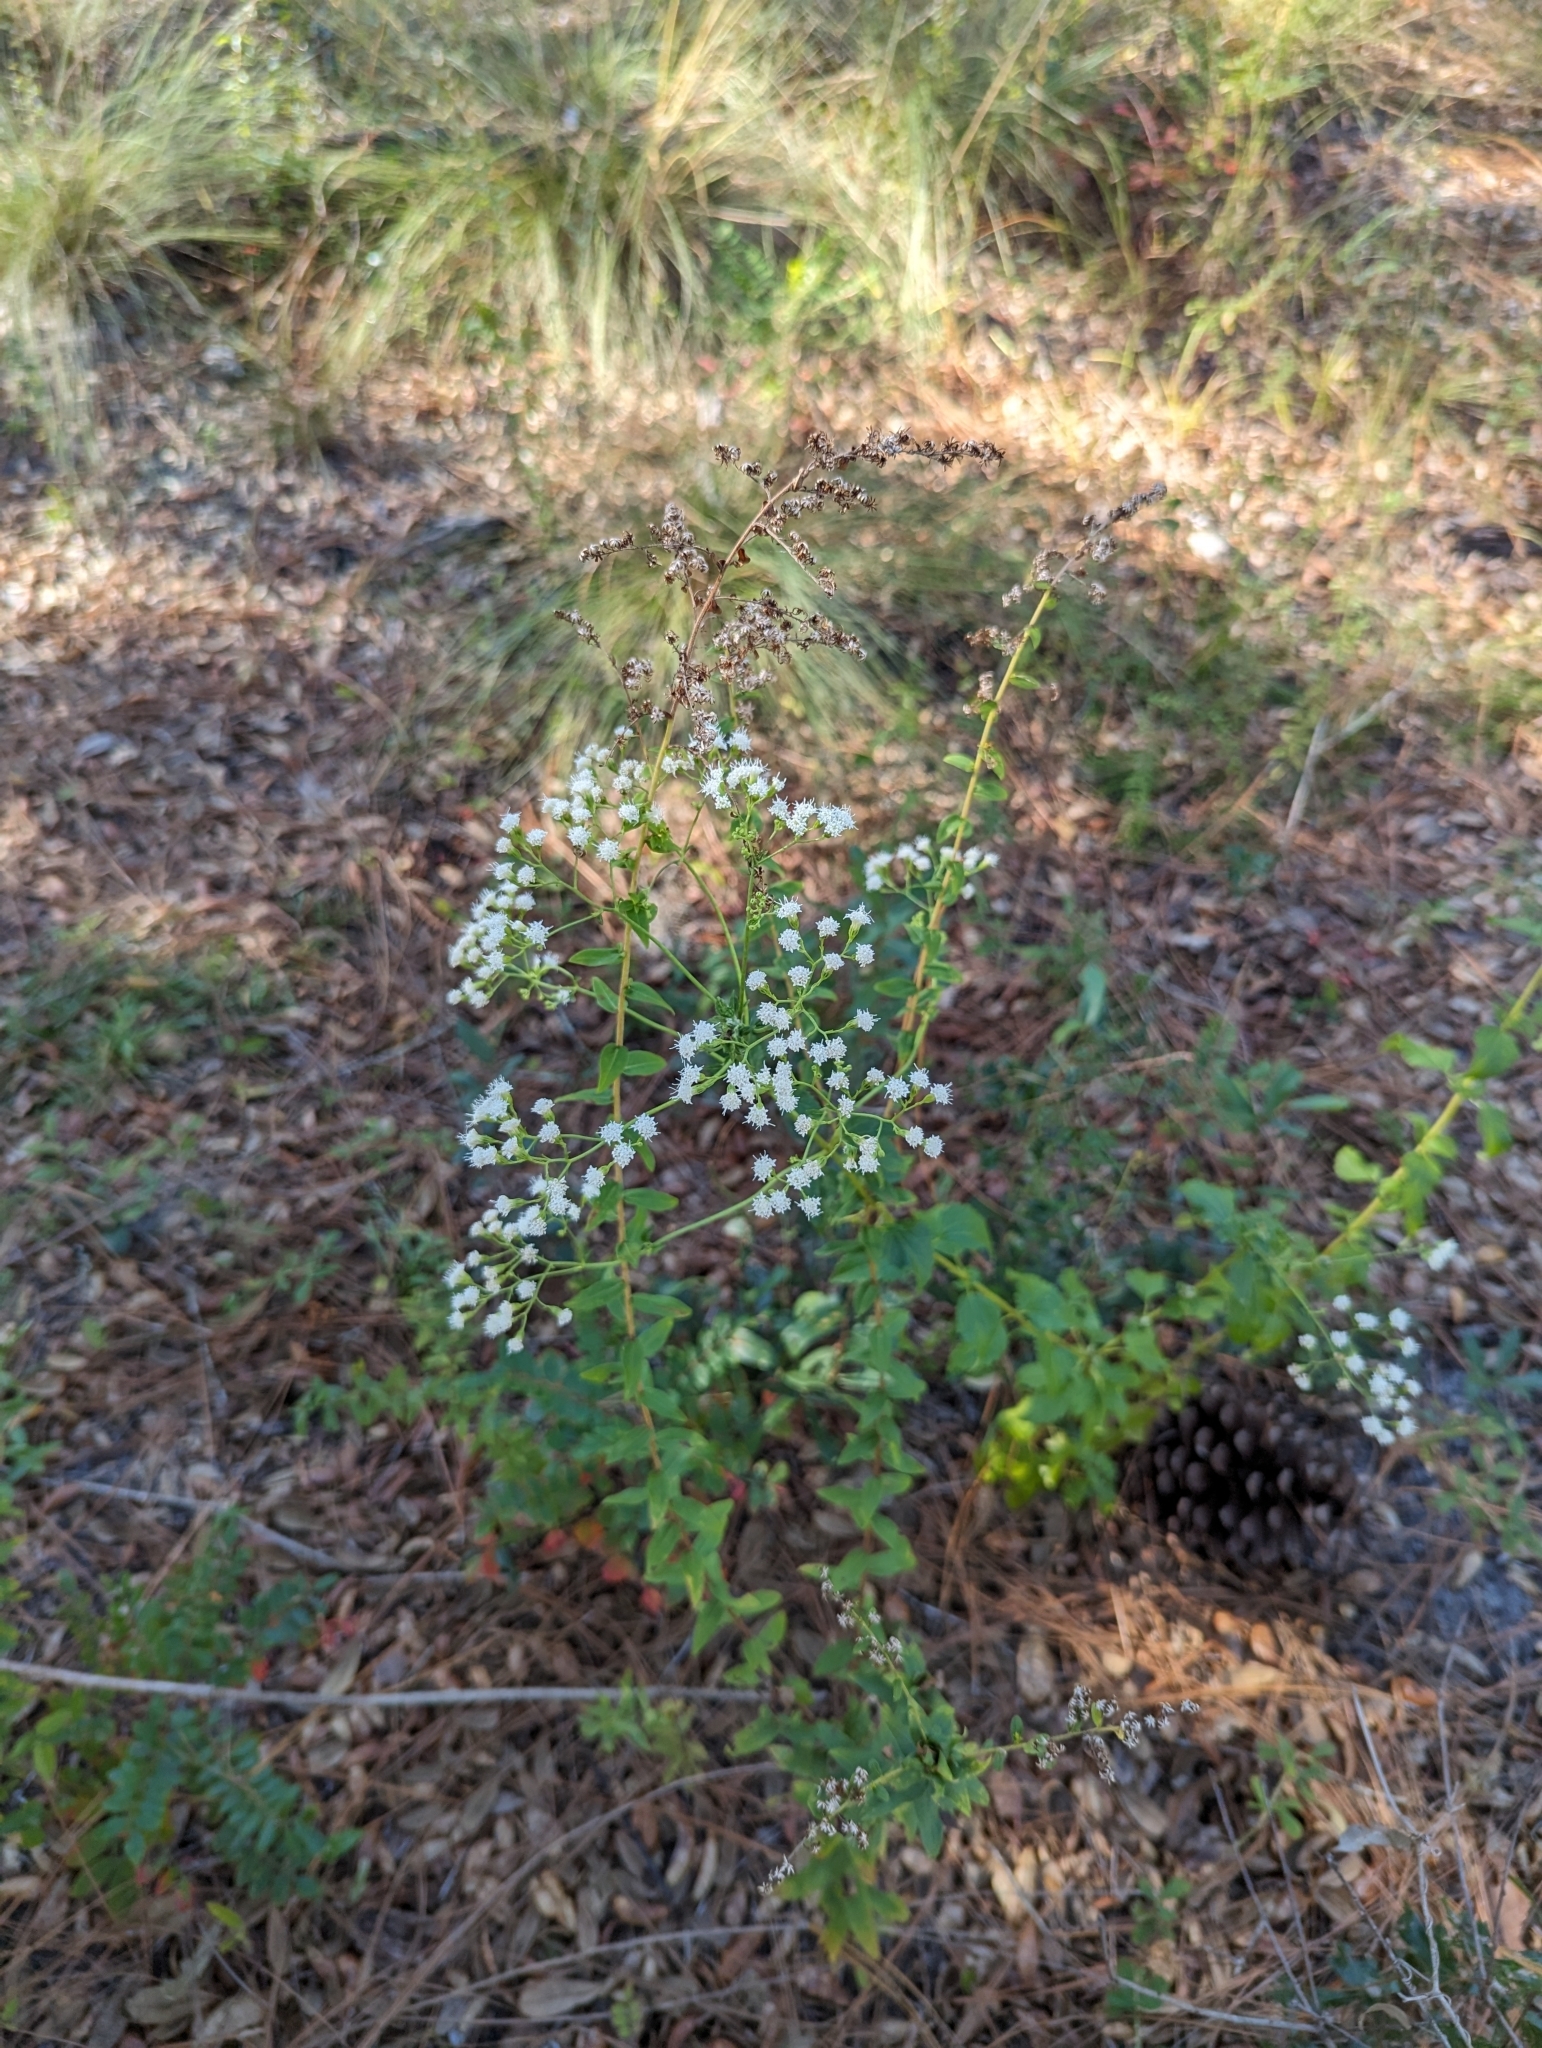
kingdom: Plantae
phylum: Tracheophyta
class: Magnoliopsida
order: Asterales
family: Asteraceae
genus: Ageratina
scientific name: Ageratina jucunda
